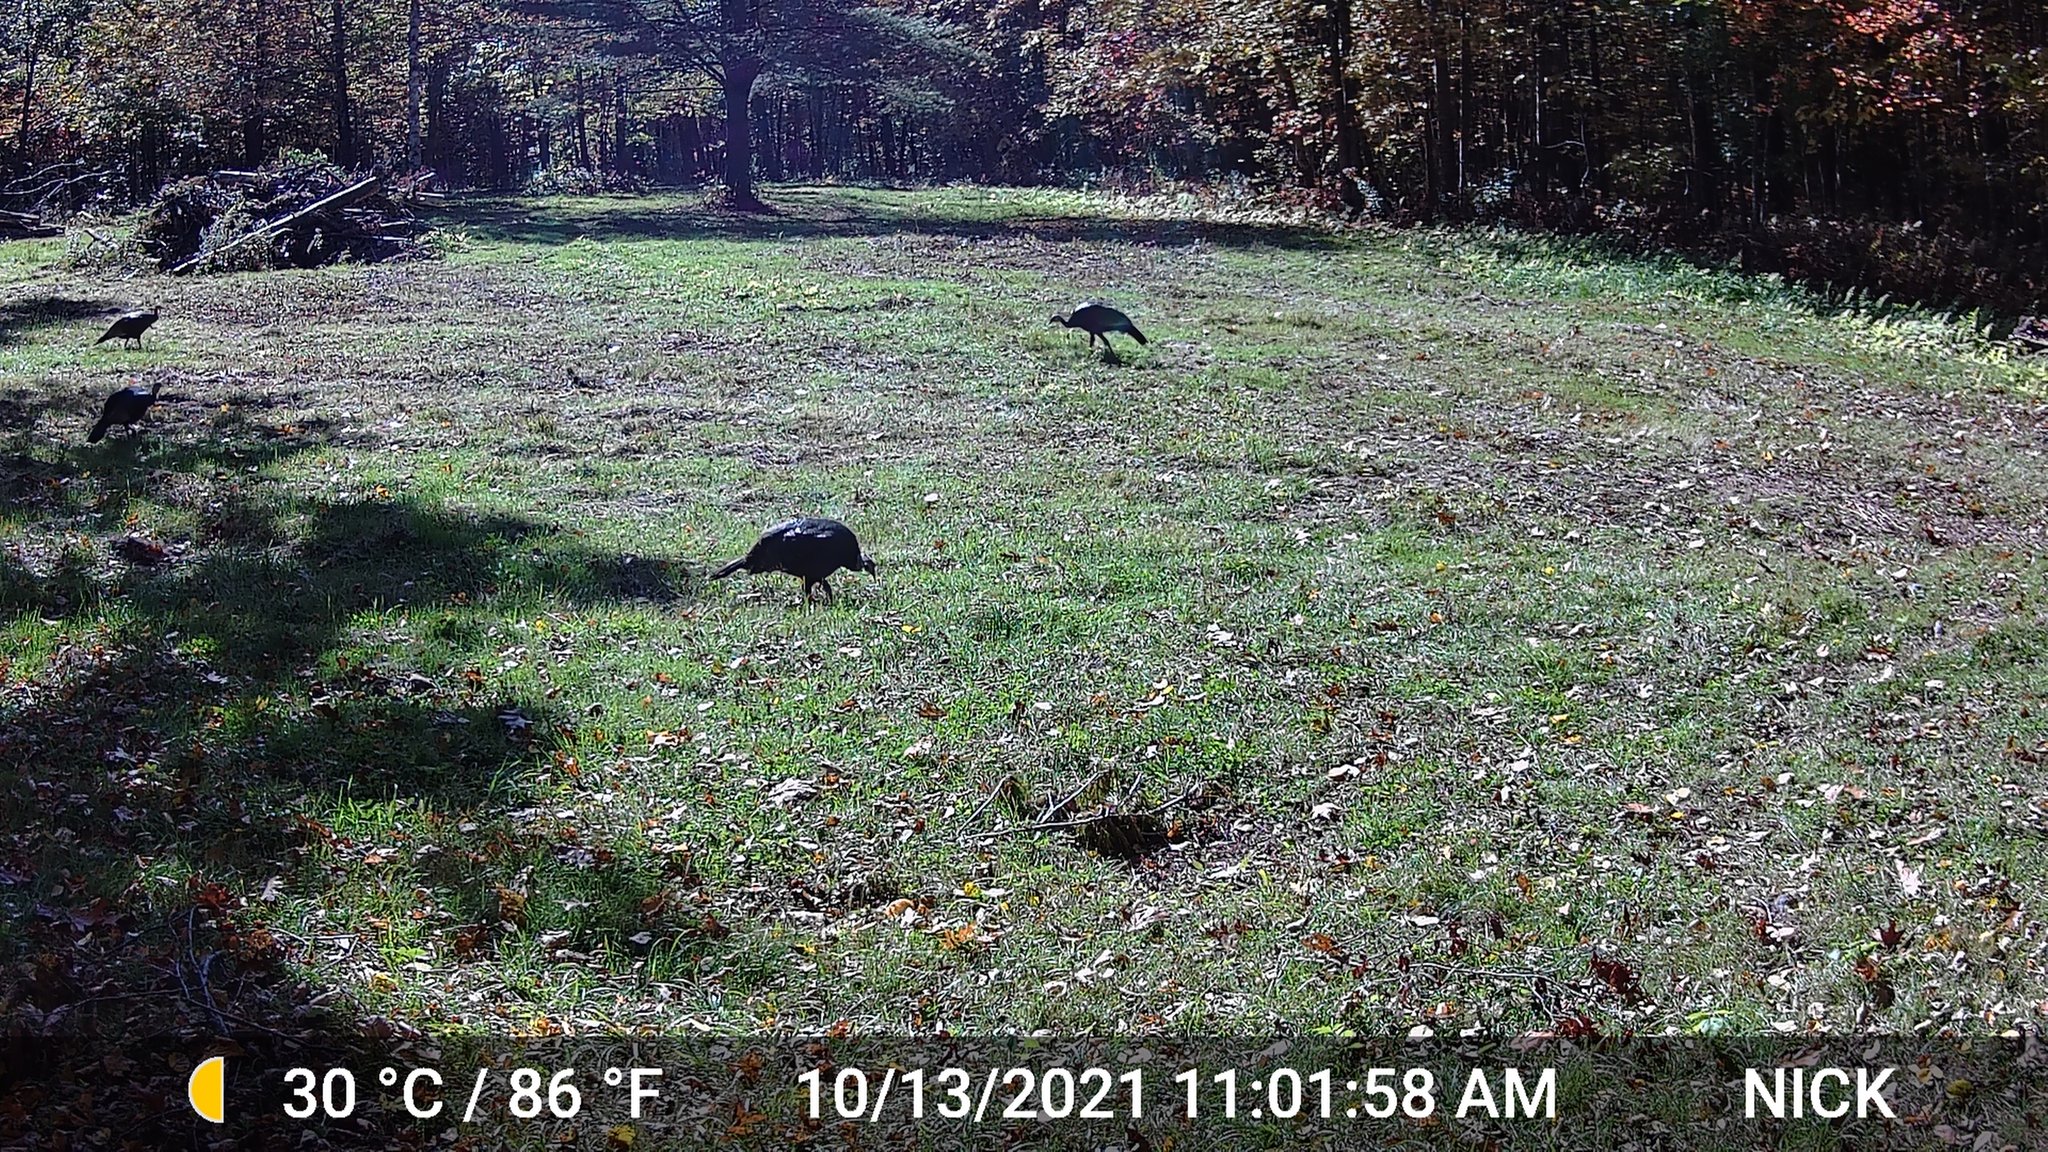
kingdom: Animalia
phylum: Chordata
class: Aves
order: Galliformes
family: Phasianidae
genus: Meleagris
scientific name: Meleagris gallopavo
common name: Wild turkey
